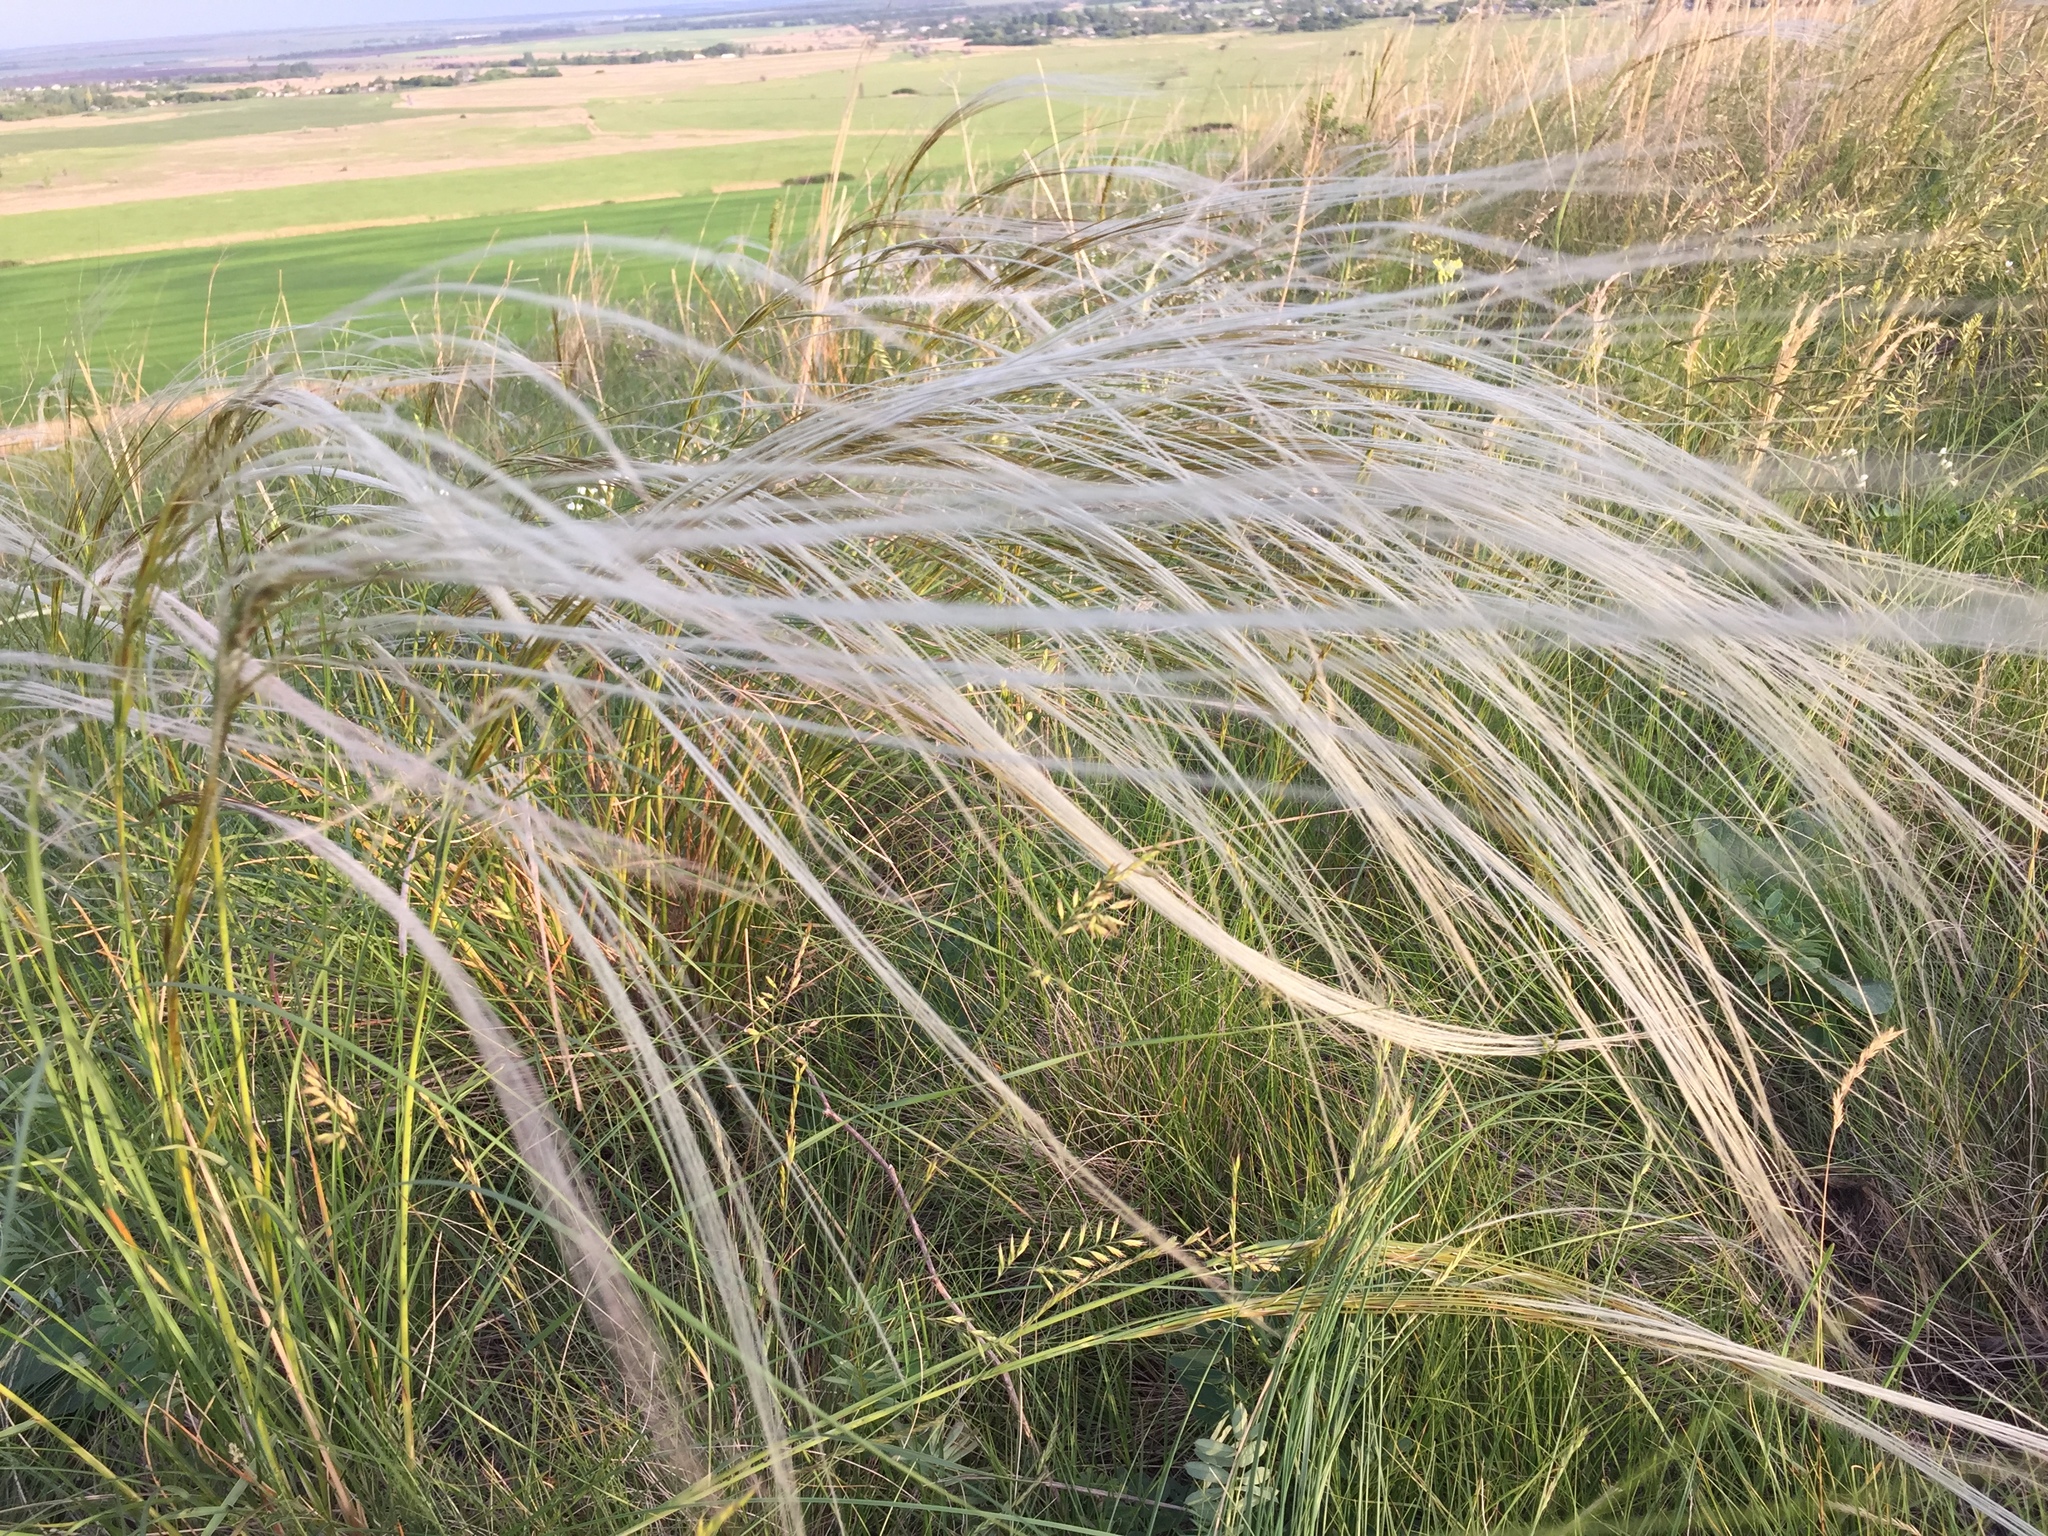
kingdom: Plantae
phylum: Tracheophyta
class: Liliopsida
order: Poales
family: Poaceae
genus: Stipa
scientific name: Stipa pennata
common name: European feather grass
